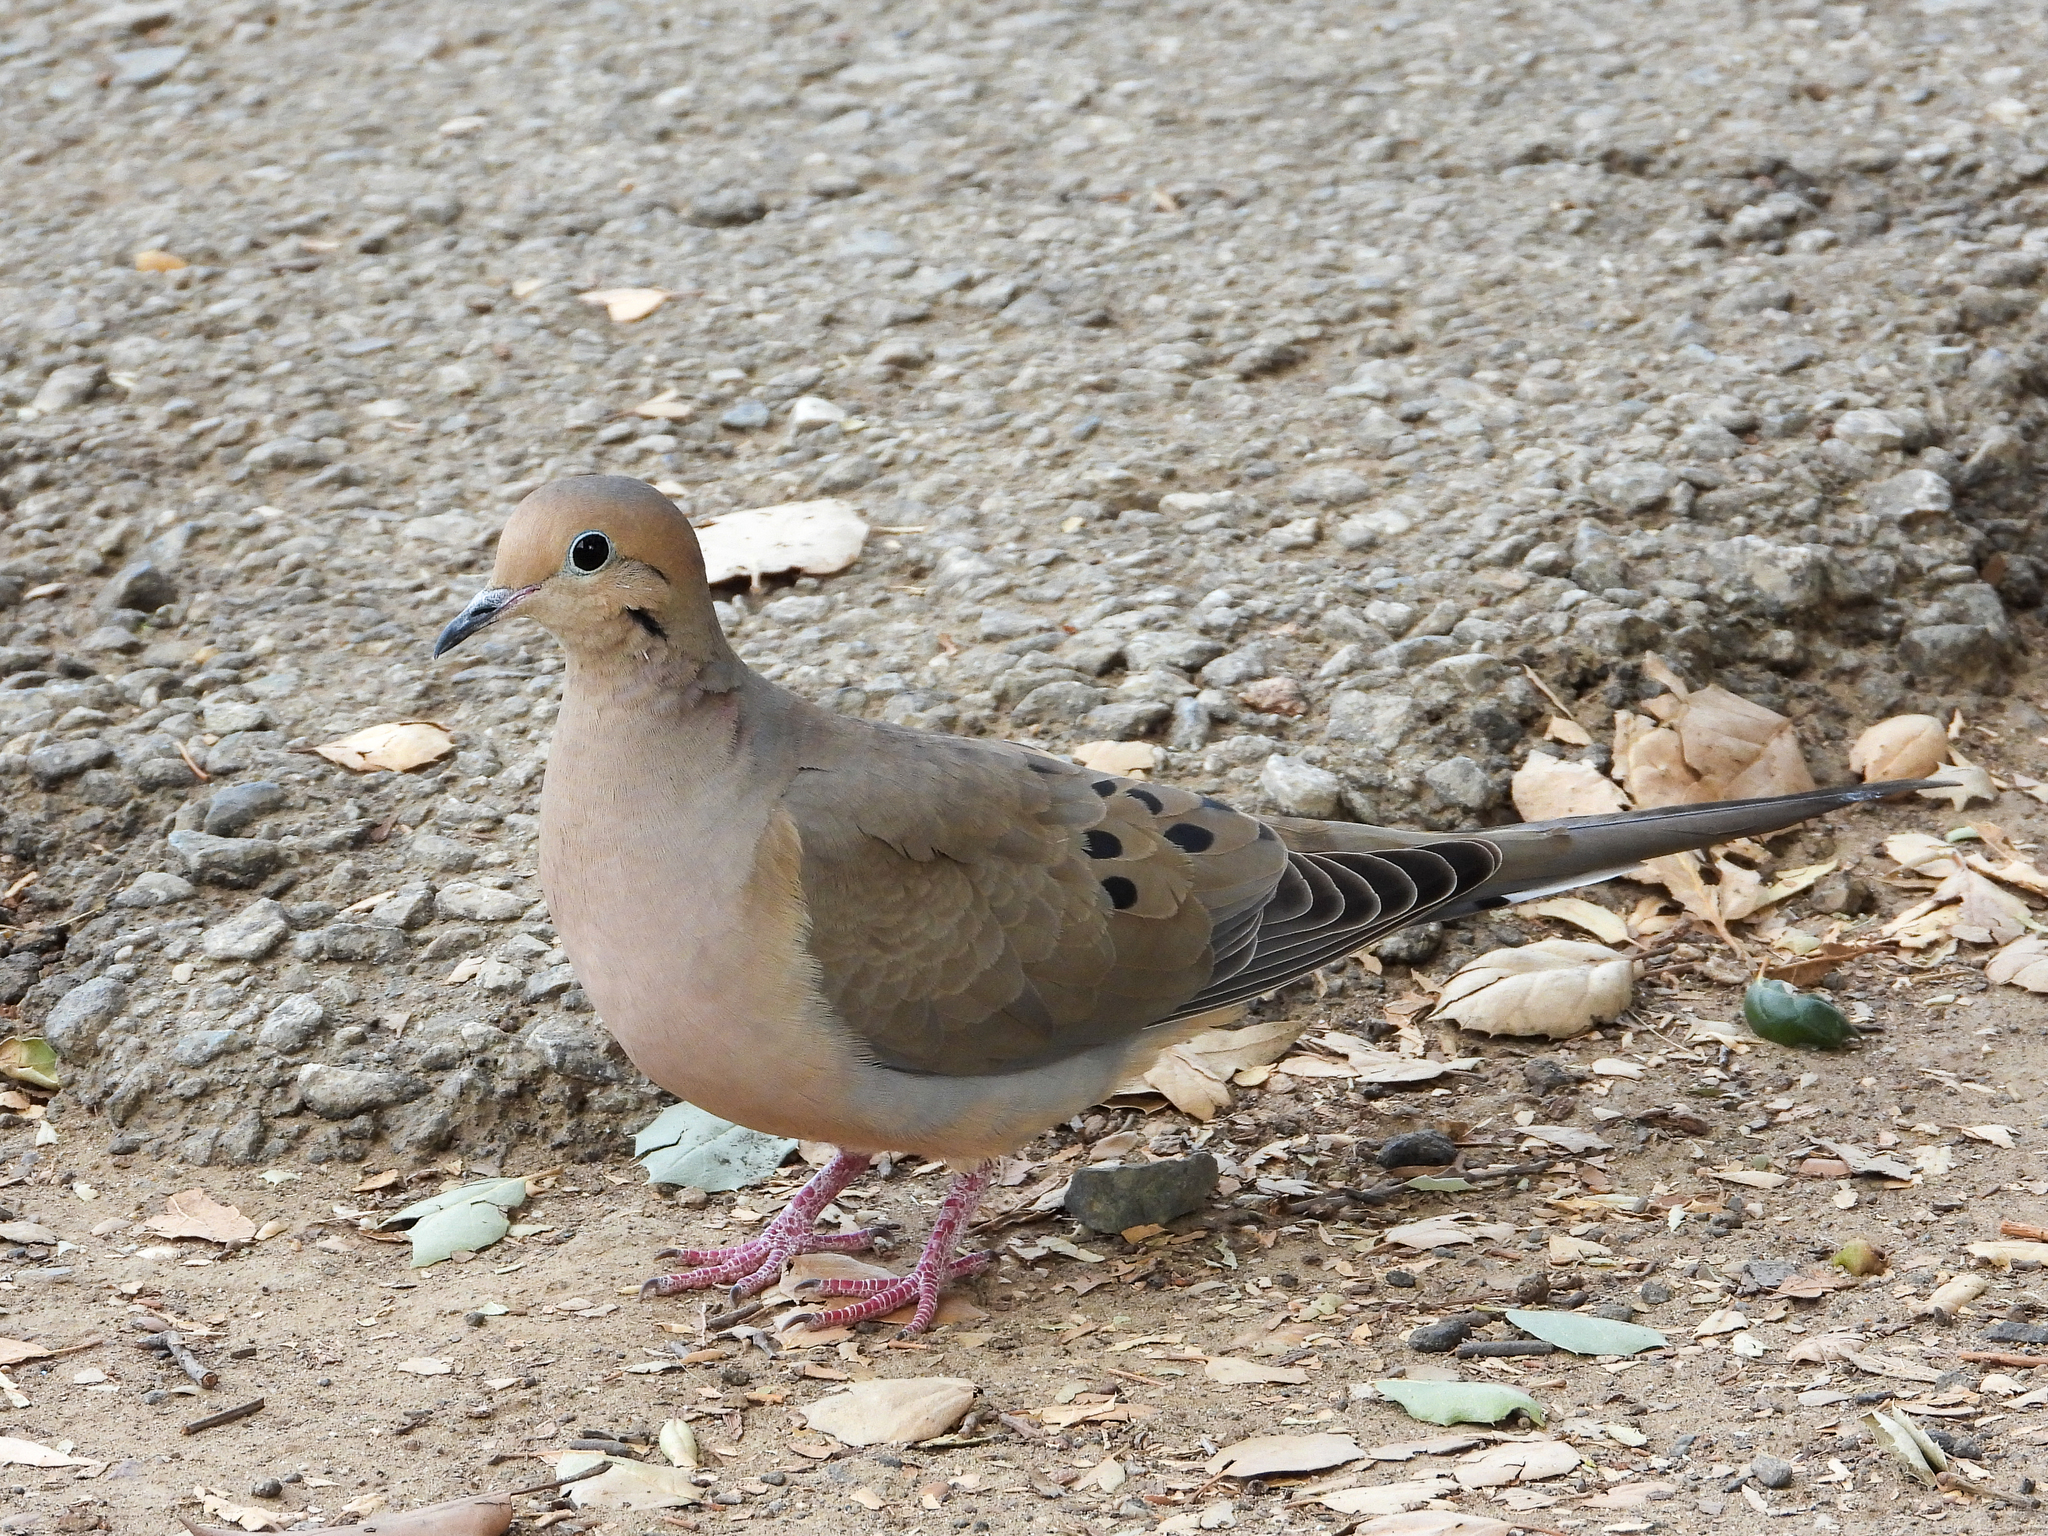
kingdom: Animalia
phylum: Chordata
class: Aves
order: Columbiformes
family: Columbidae
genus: Zenaida
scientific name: Zenaida macroura
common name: Mourning dove
